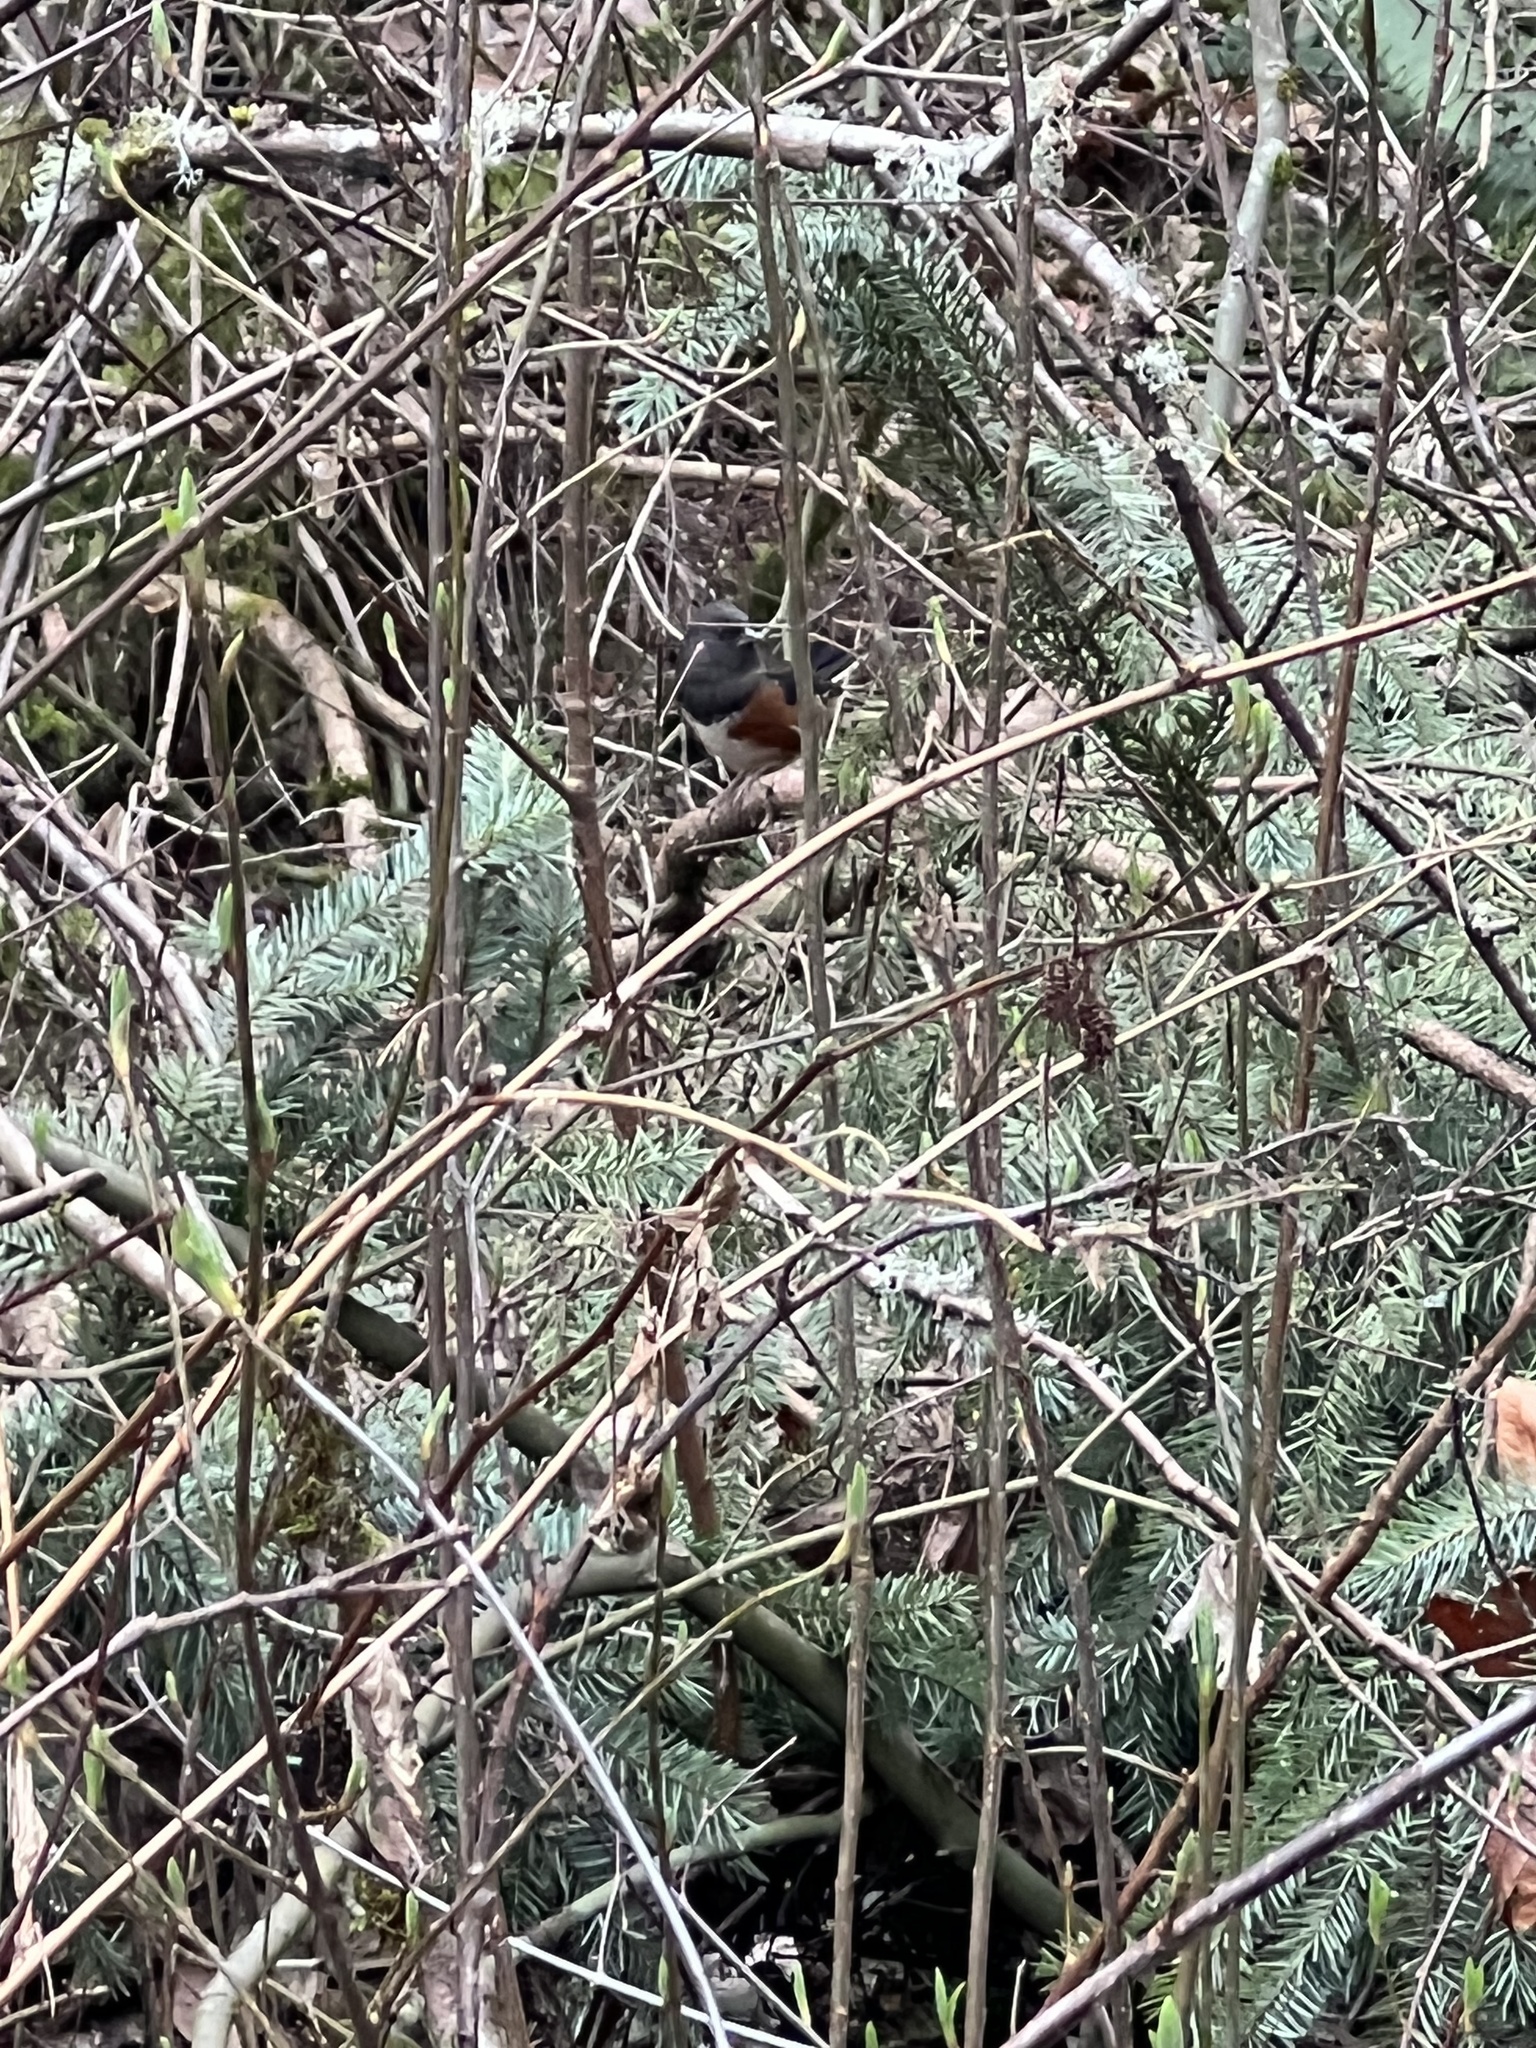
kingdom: Animalia
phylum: Chordata
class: Aves
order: Passeriformes
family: Passerellidae
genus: Pipilo
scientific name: Pipilo maculatus
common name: Spotted towhee
